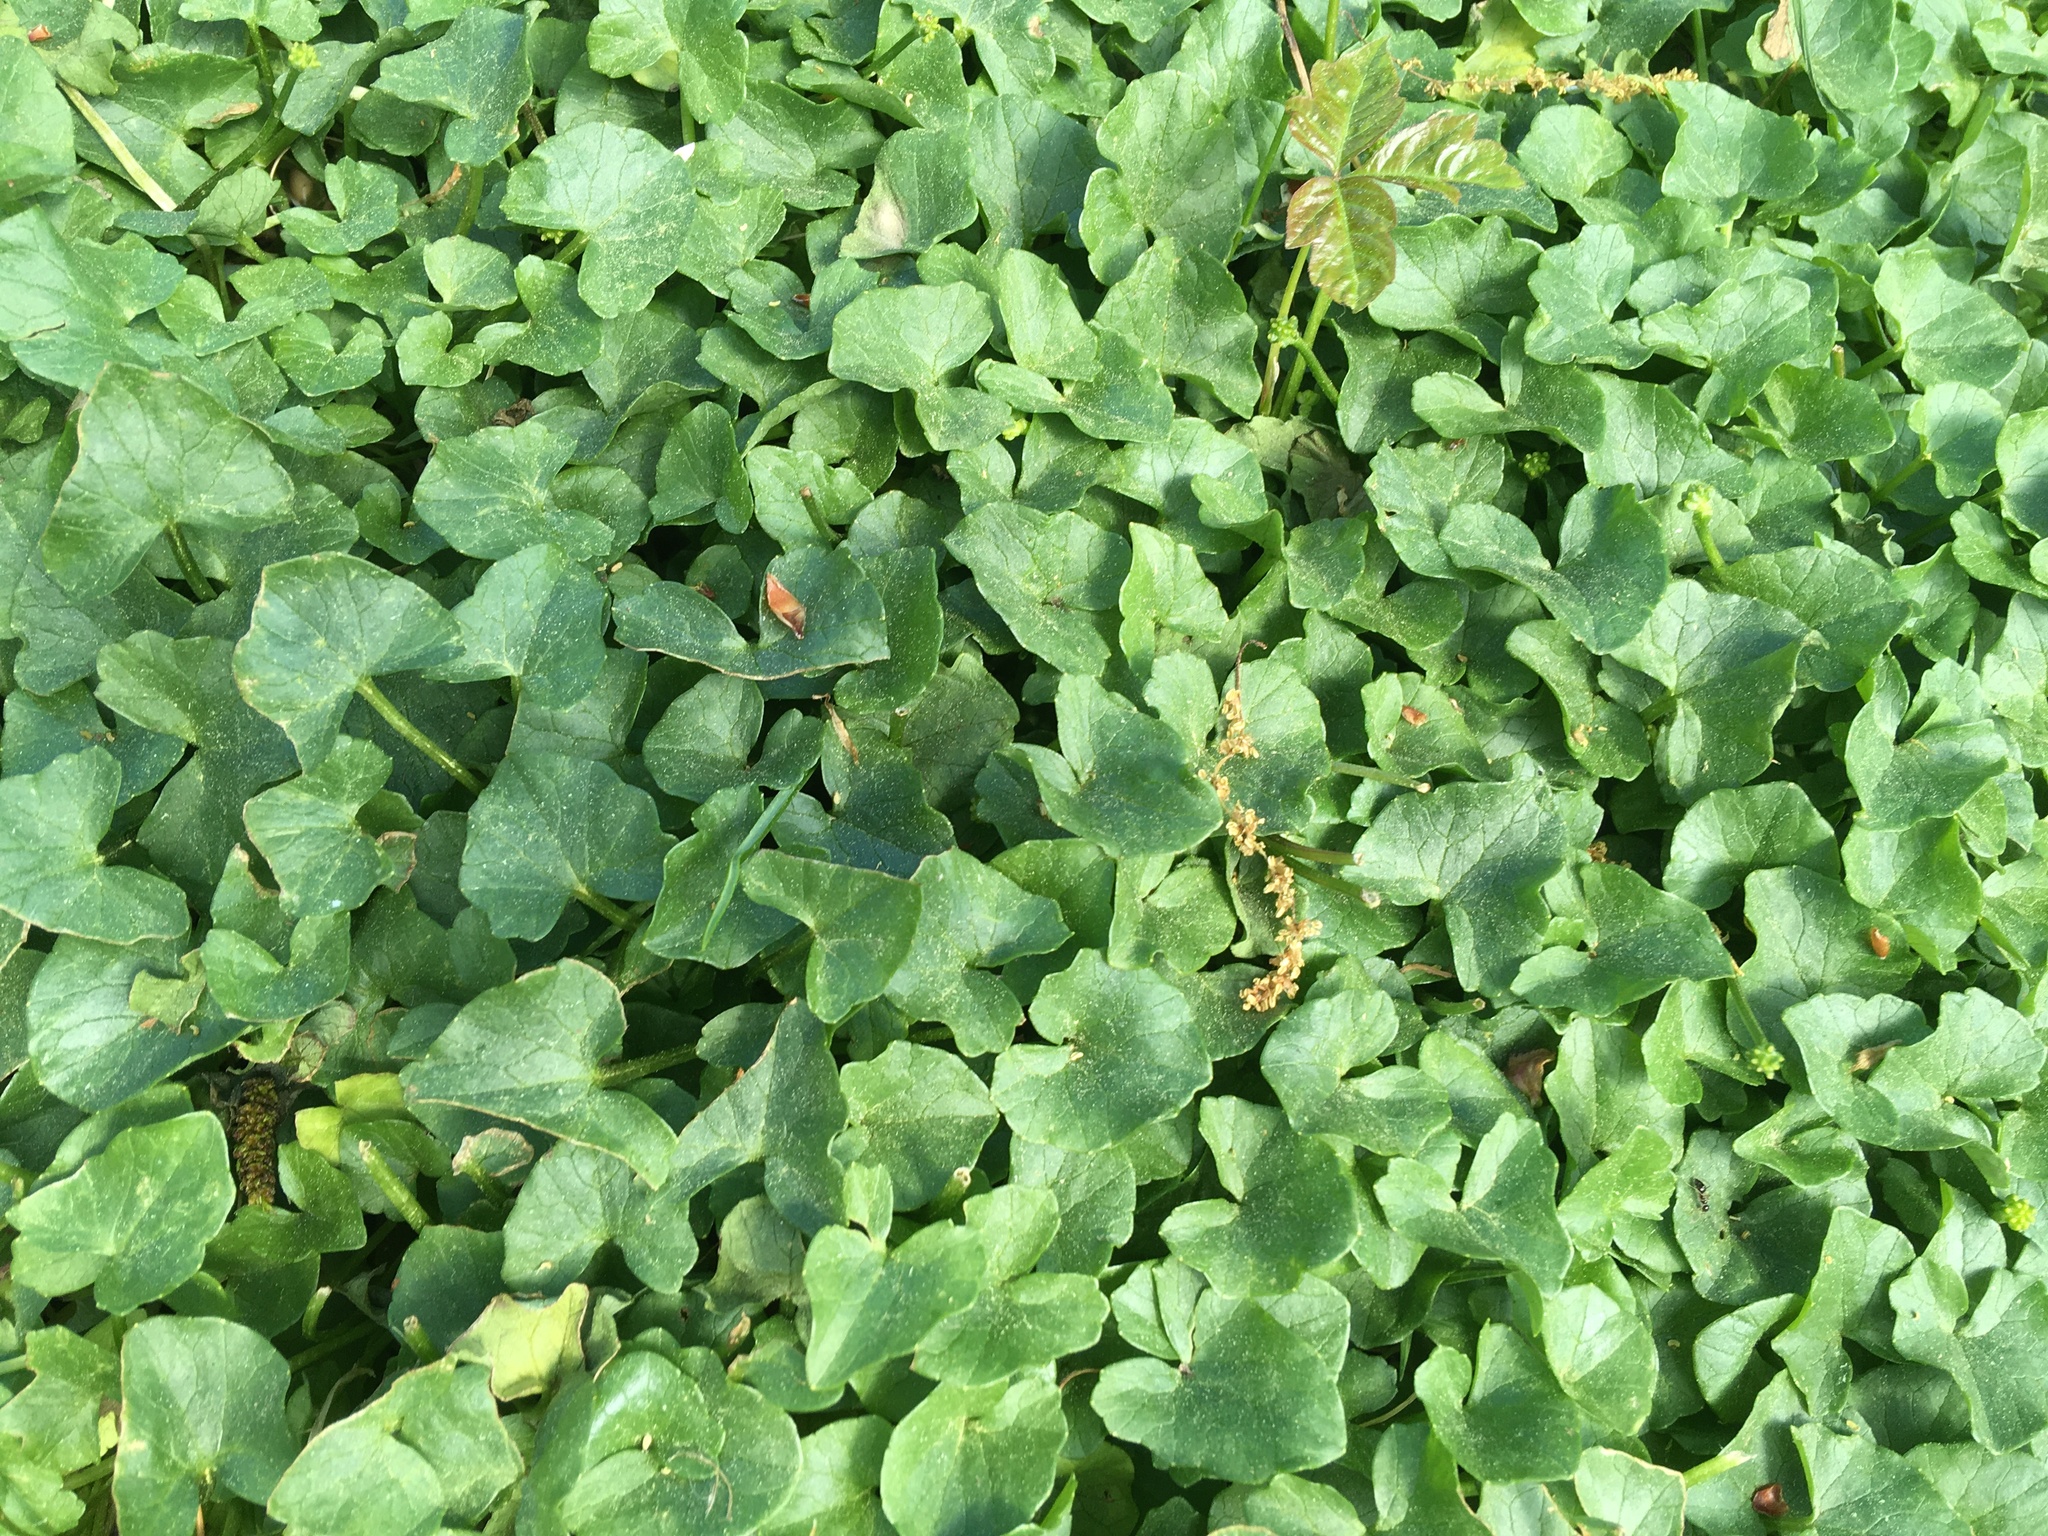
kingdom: Plantae
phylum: Tracheophyta
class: Magnoliopsida
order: Ranunculales
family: Ranunculaceae
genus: Ficaria
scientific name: Ficaria verna
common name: Lesser celandine
